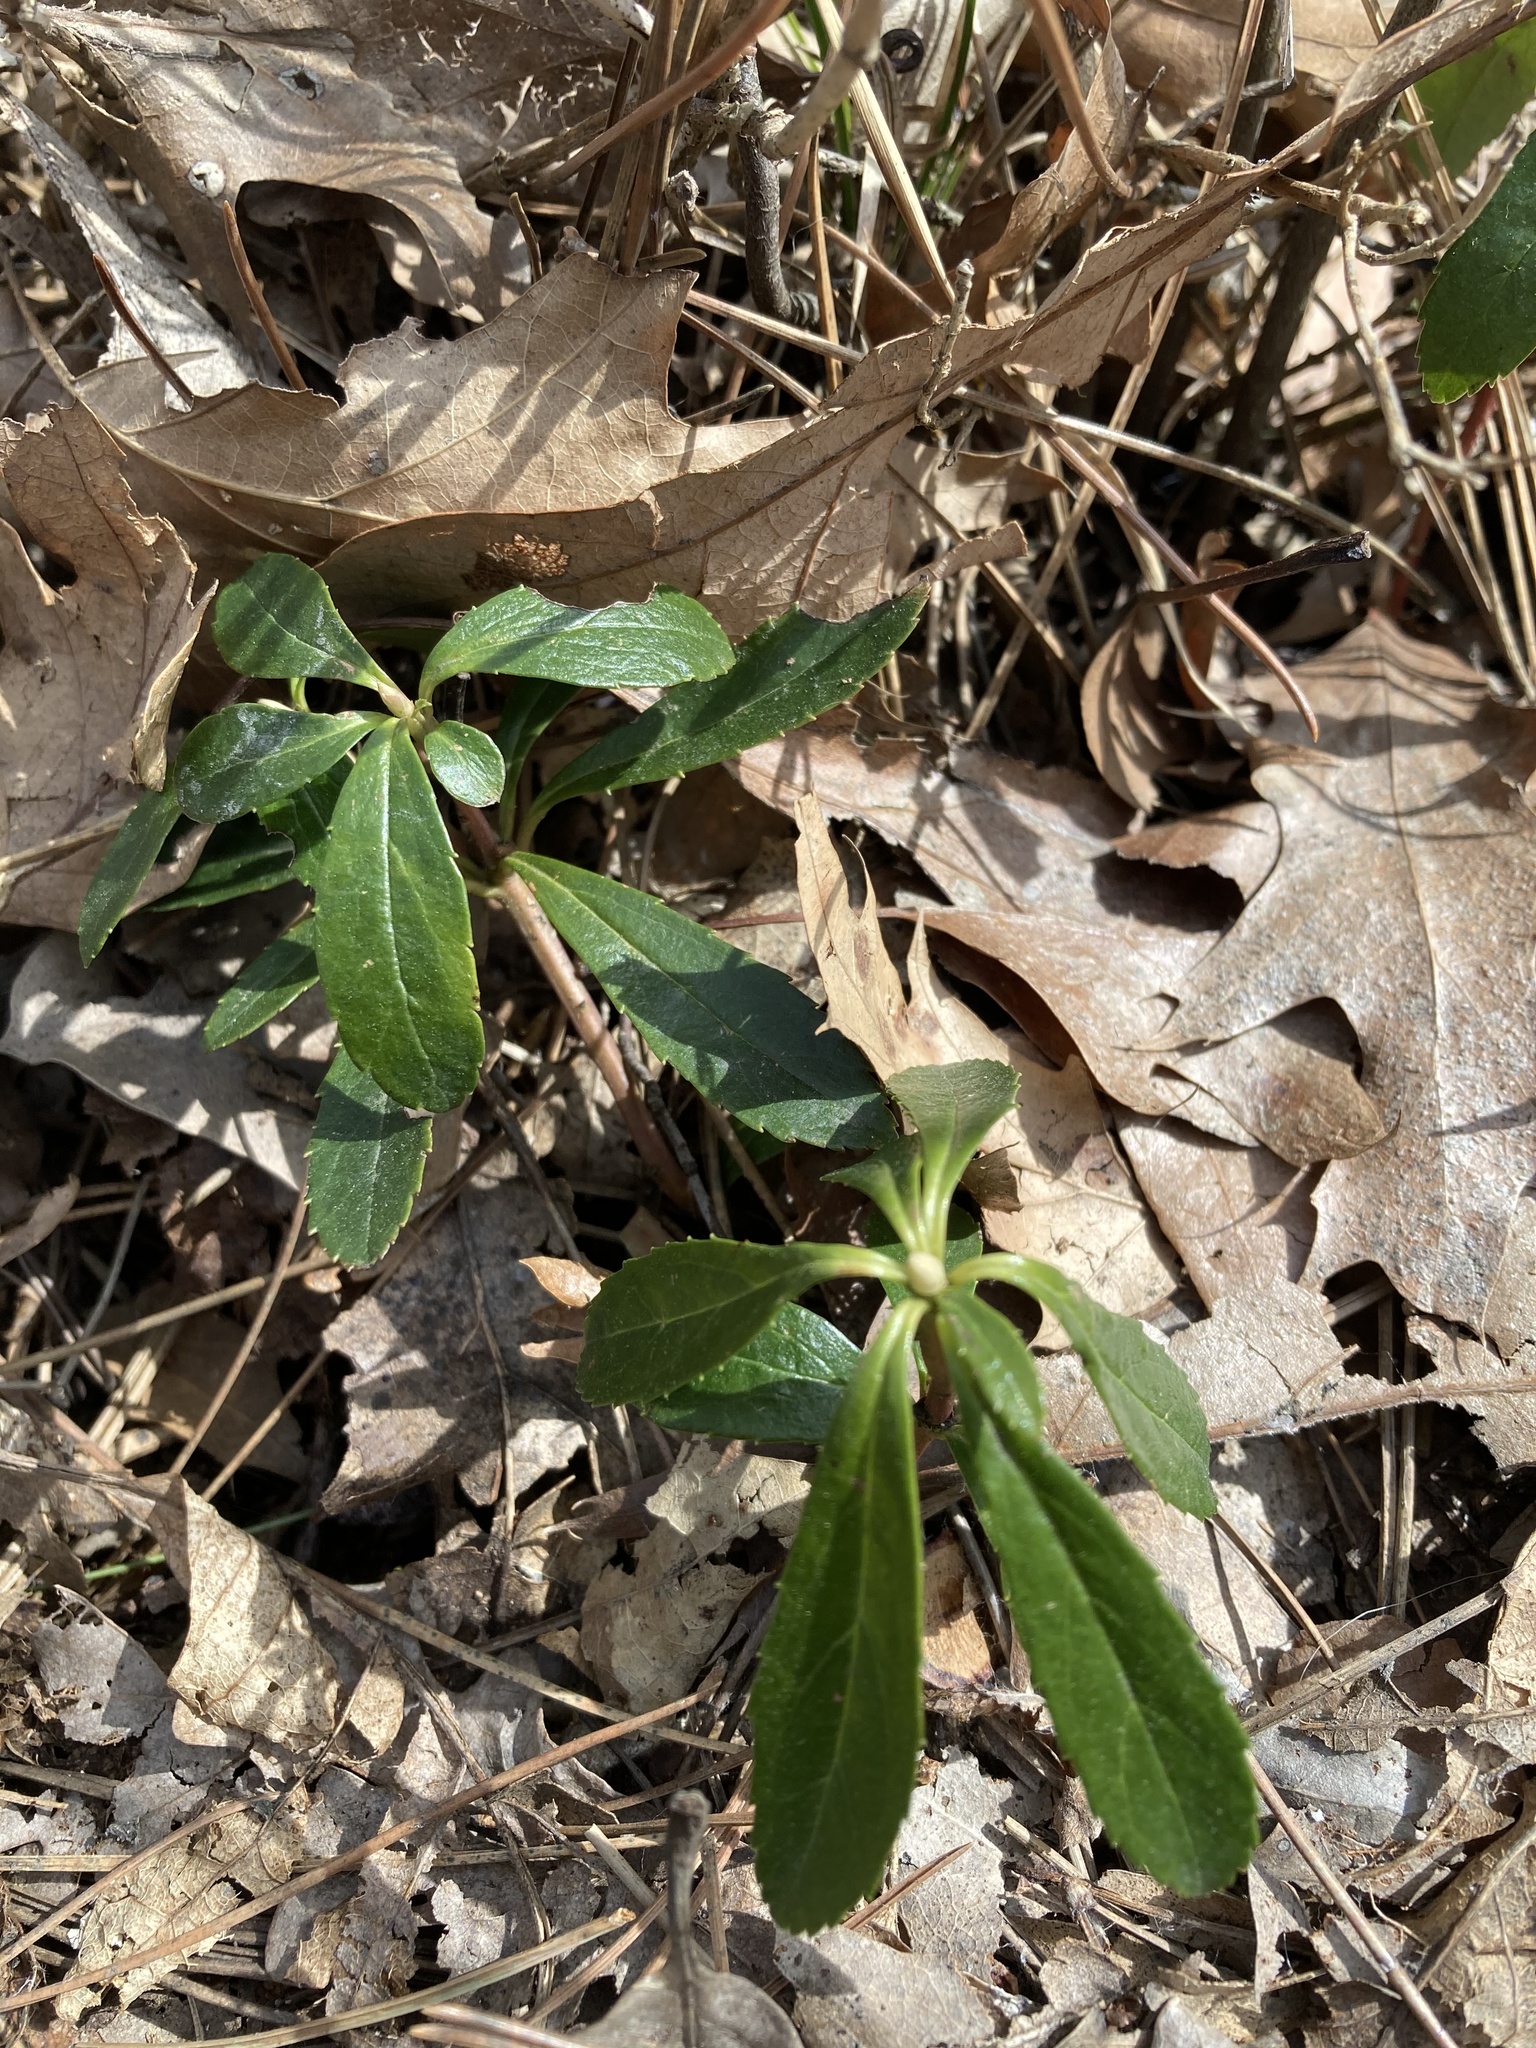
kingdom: Plantae
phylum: Tracheophyta
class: Magnoliopsida
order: Ericales
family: Ericaceae
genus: Chimaphila
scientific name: Chimaphila umbellata
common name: Pipsissewa
